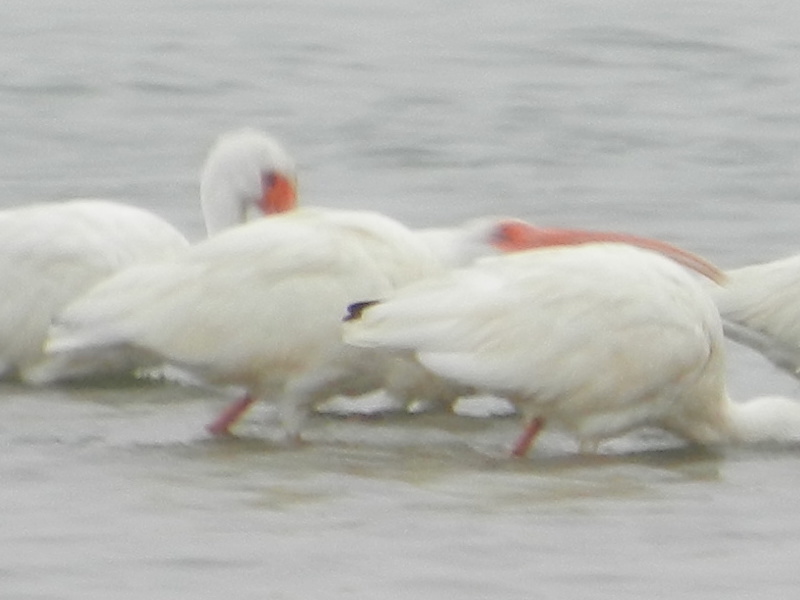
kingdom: Animalia
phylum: Chordata
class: Aves
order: Pelecaniformes
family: Threskiornithidae
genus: Eudocimus
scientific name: Eudocimus albus
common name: White ibis
